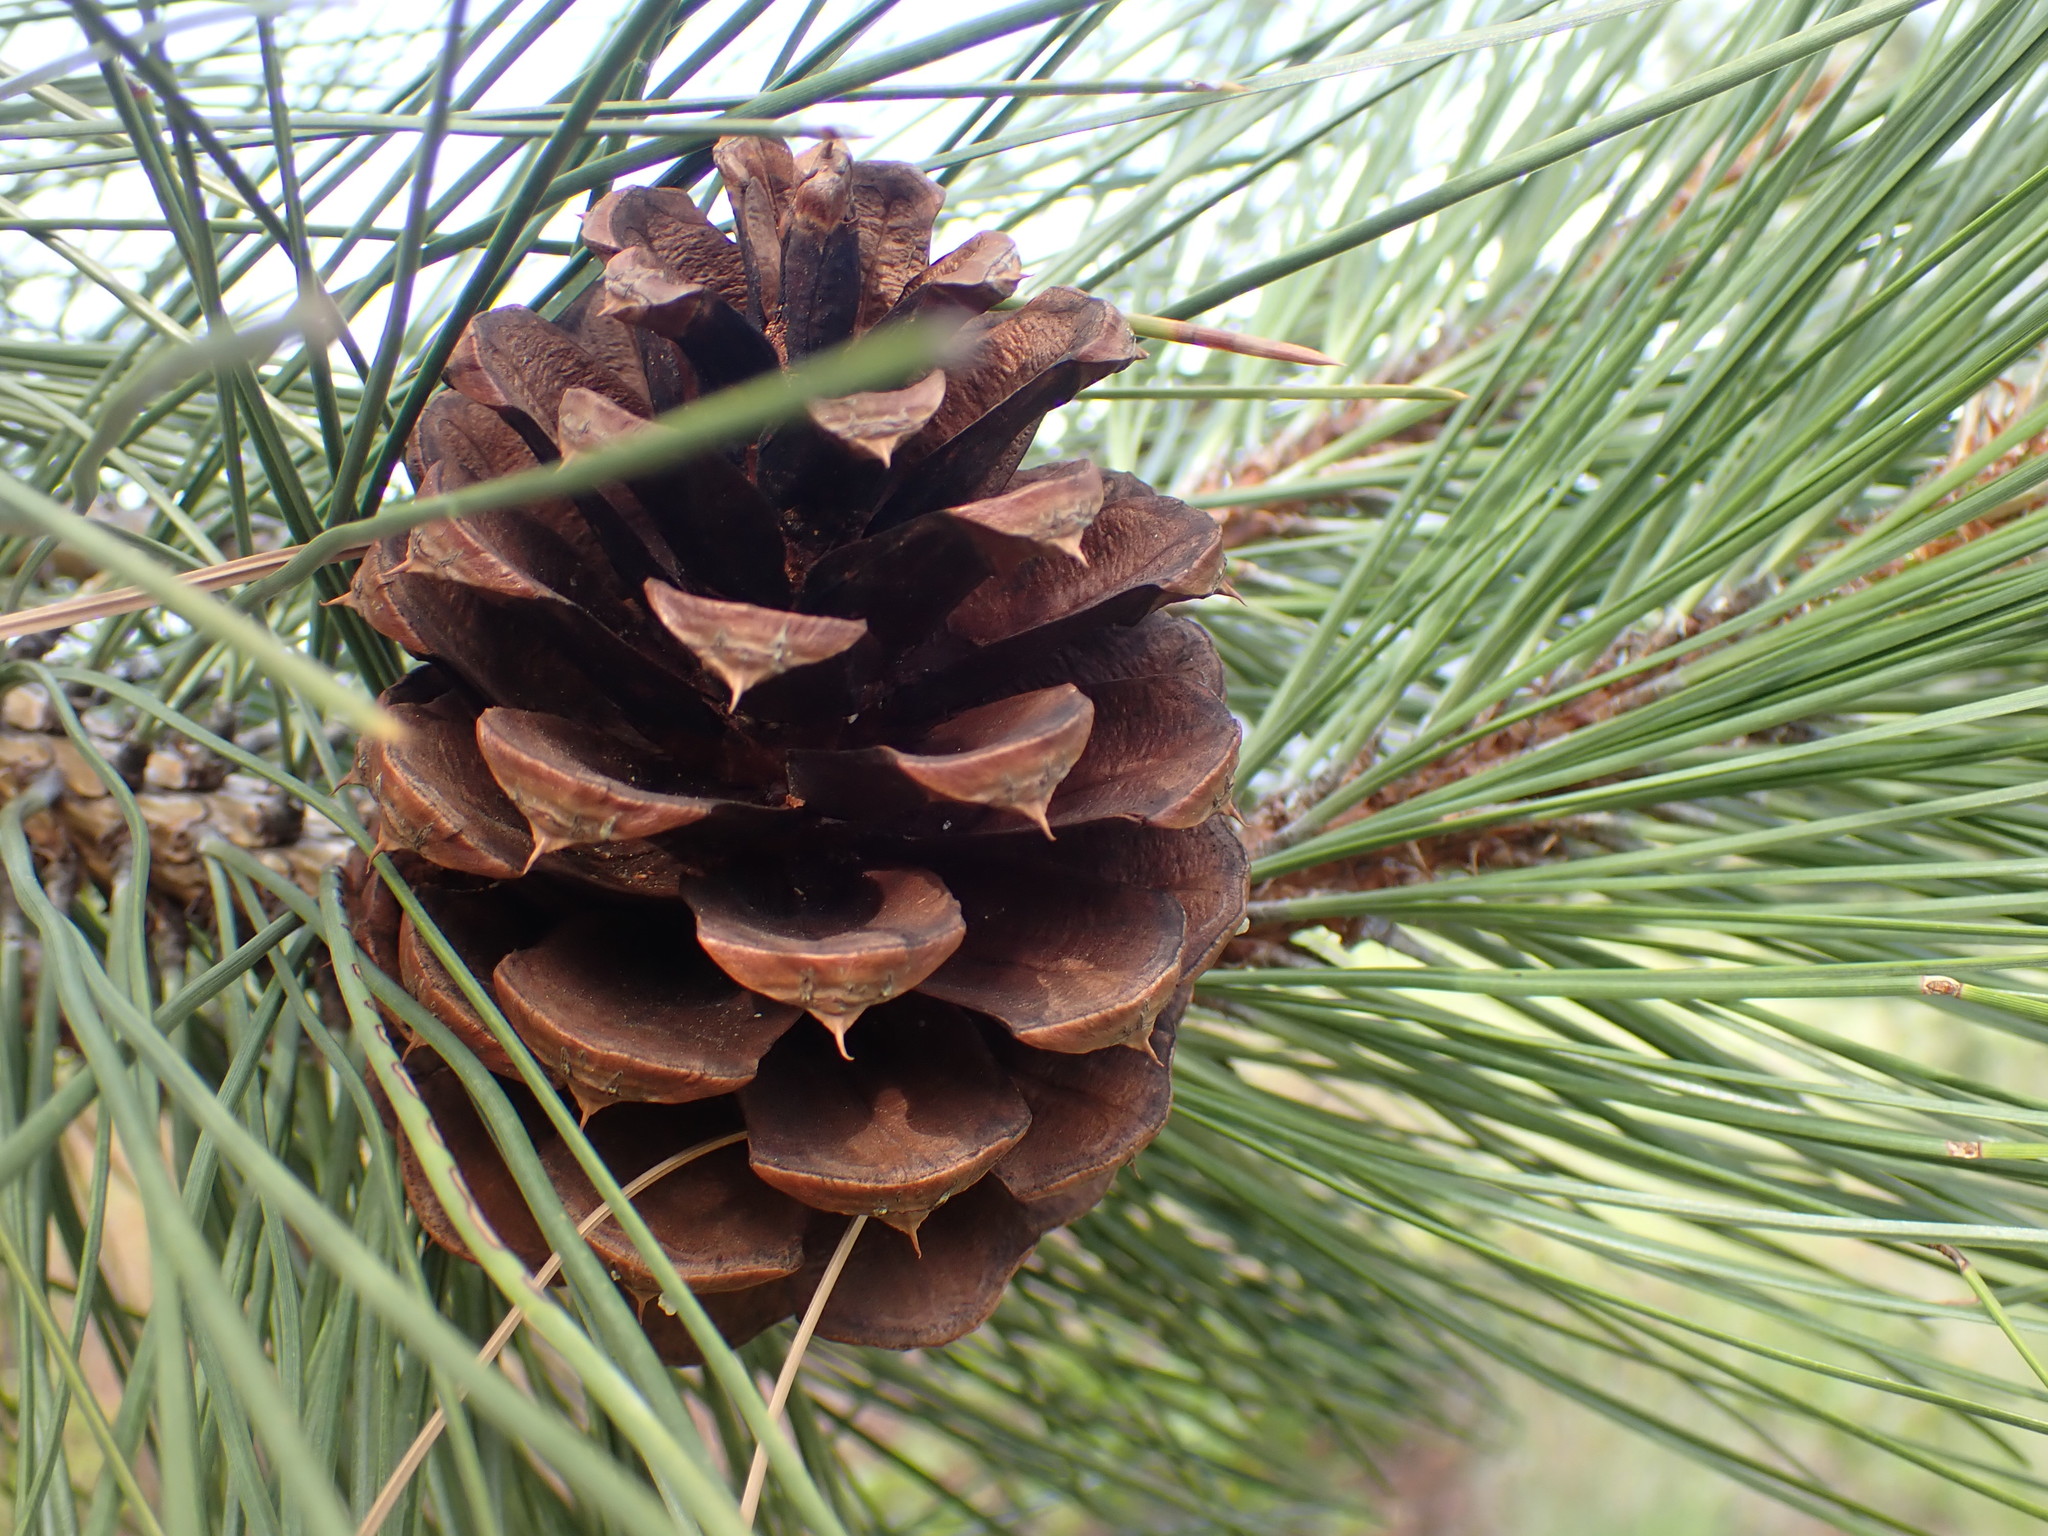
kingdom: Plantae
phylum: Tracheophyta
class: Pinopsida
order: Pinales
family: Pinaceae
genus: Pinus
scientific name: Pinus ponderosa
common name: Western yellow-pine
